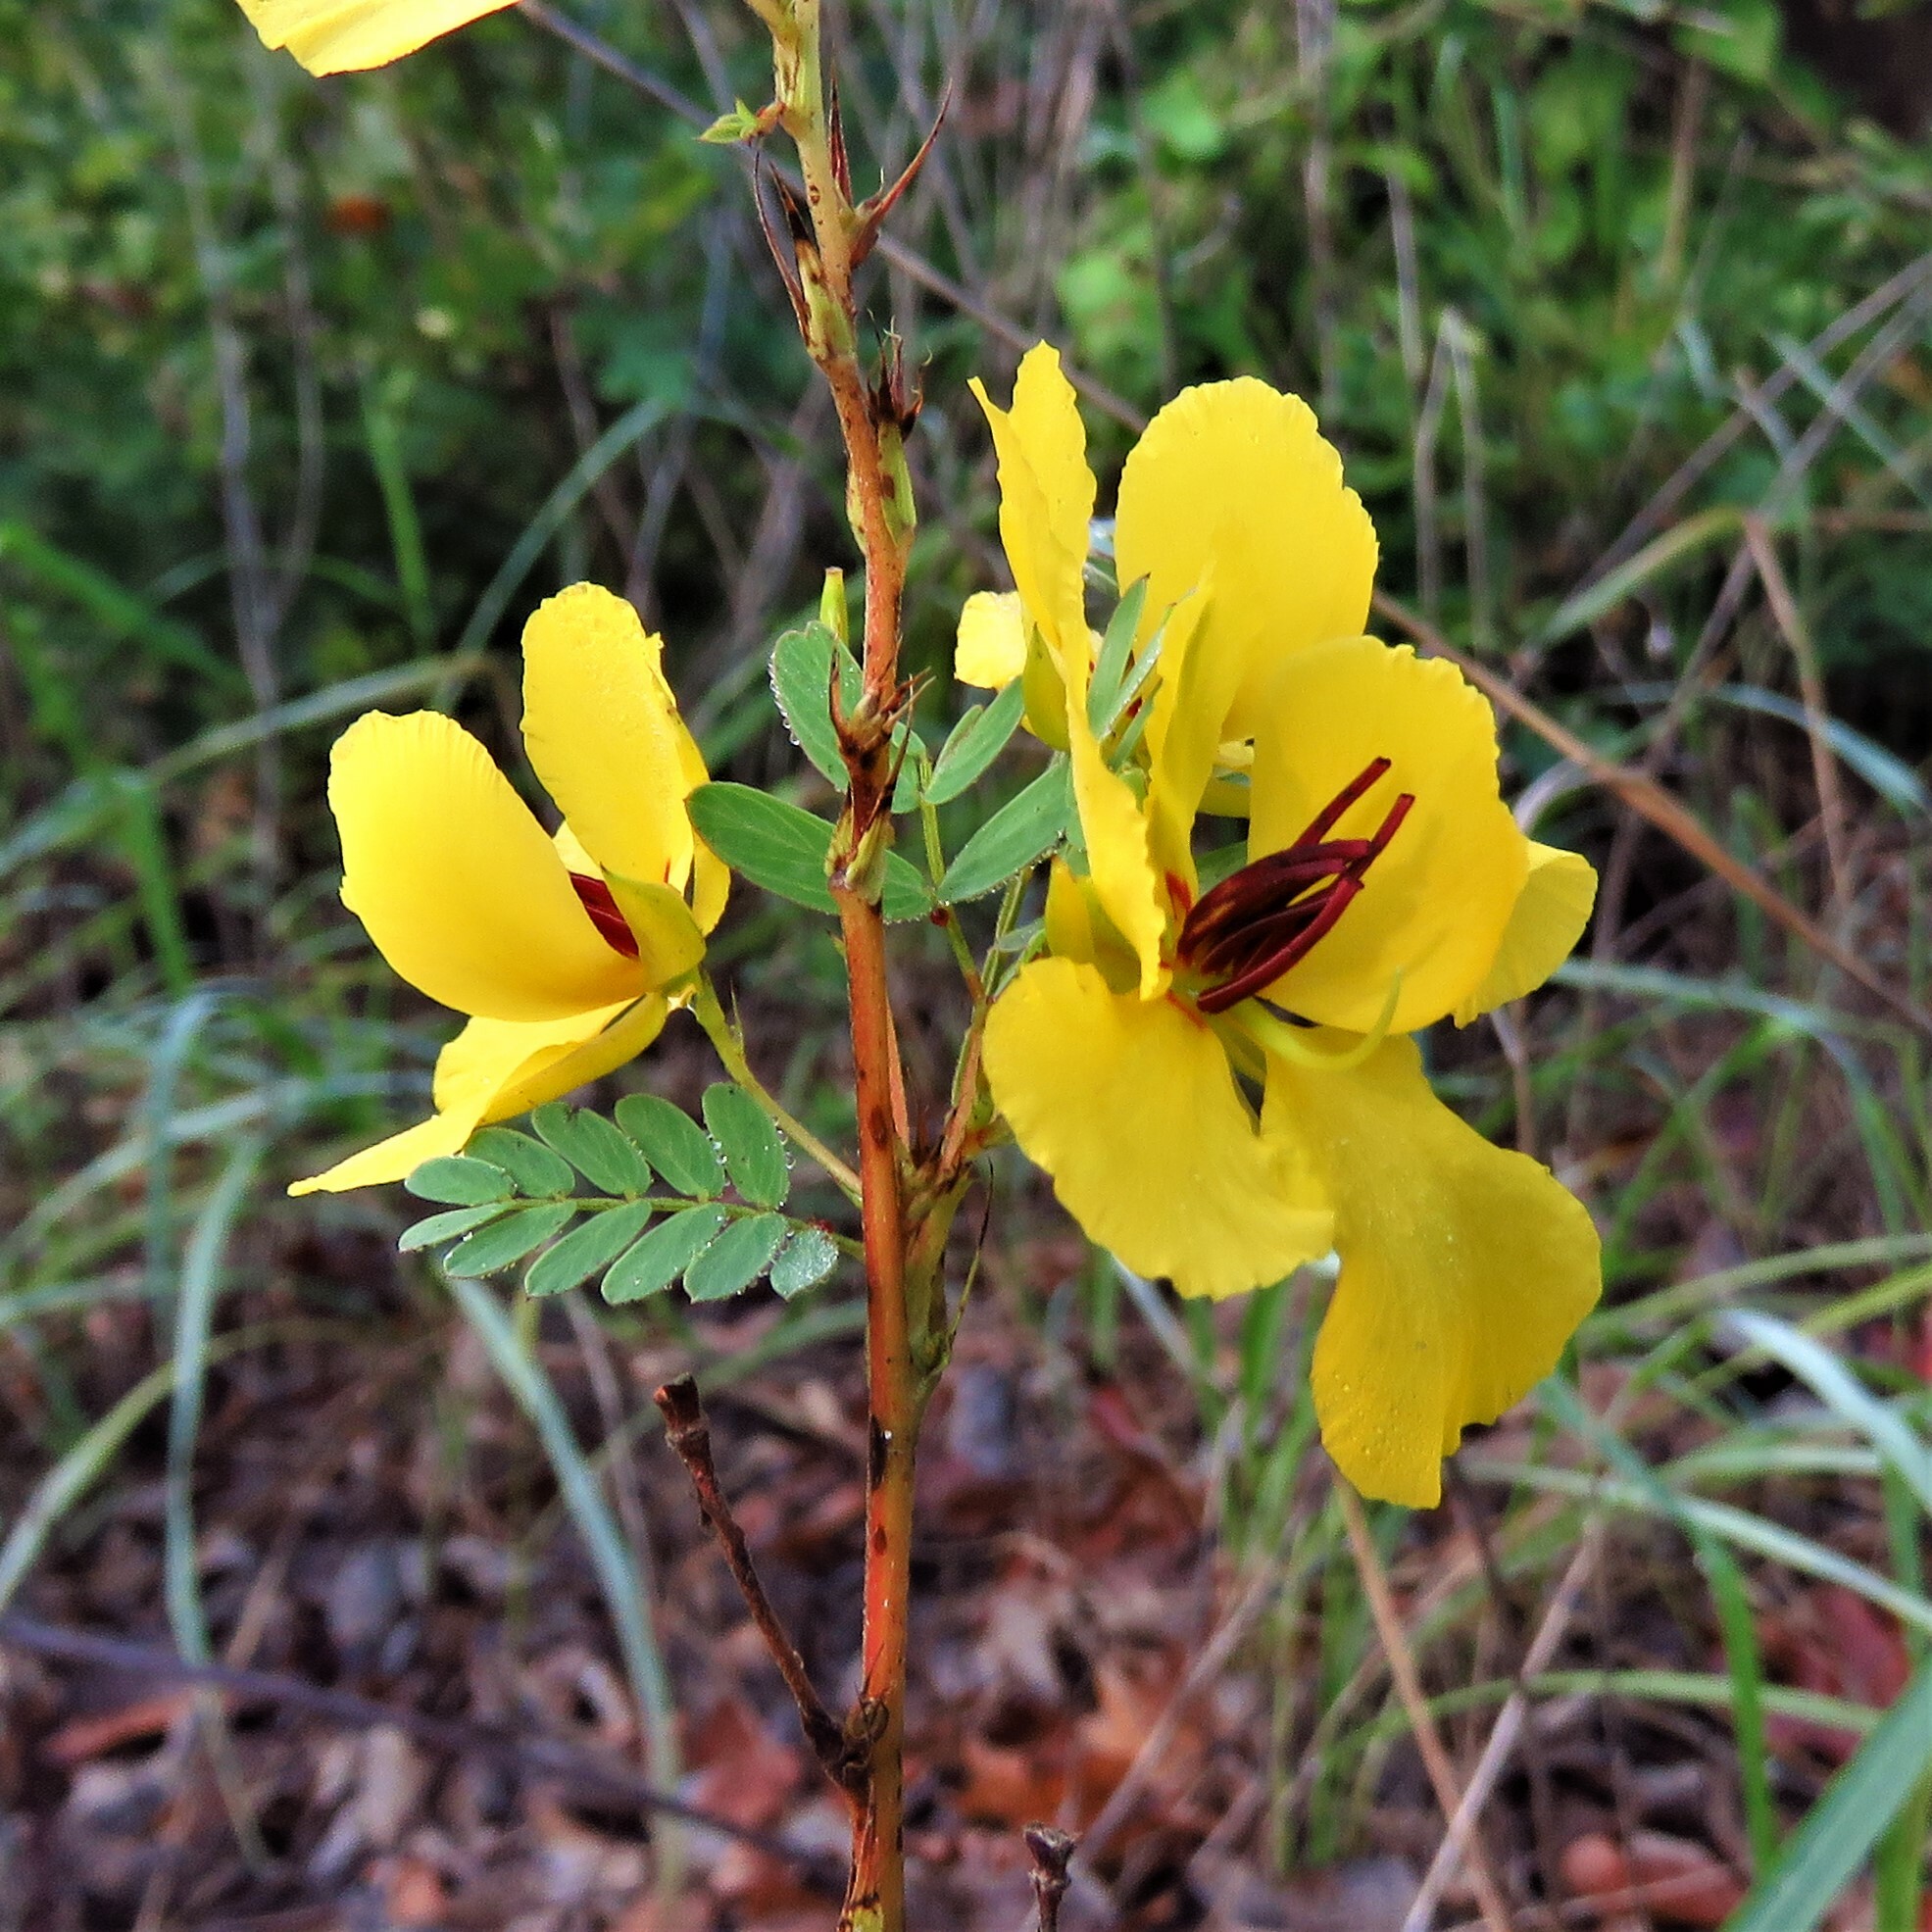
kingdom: Plantae
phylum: Tracheophyta
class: Magnoliopsida
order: Fabales
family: Fabaceae
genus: Chamaecrista
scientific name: Chamaecrista fasciculata
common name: Golden cassia
